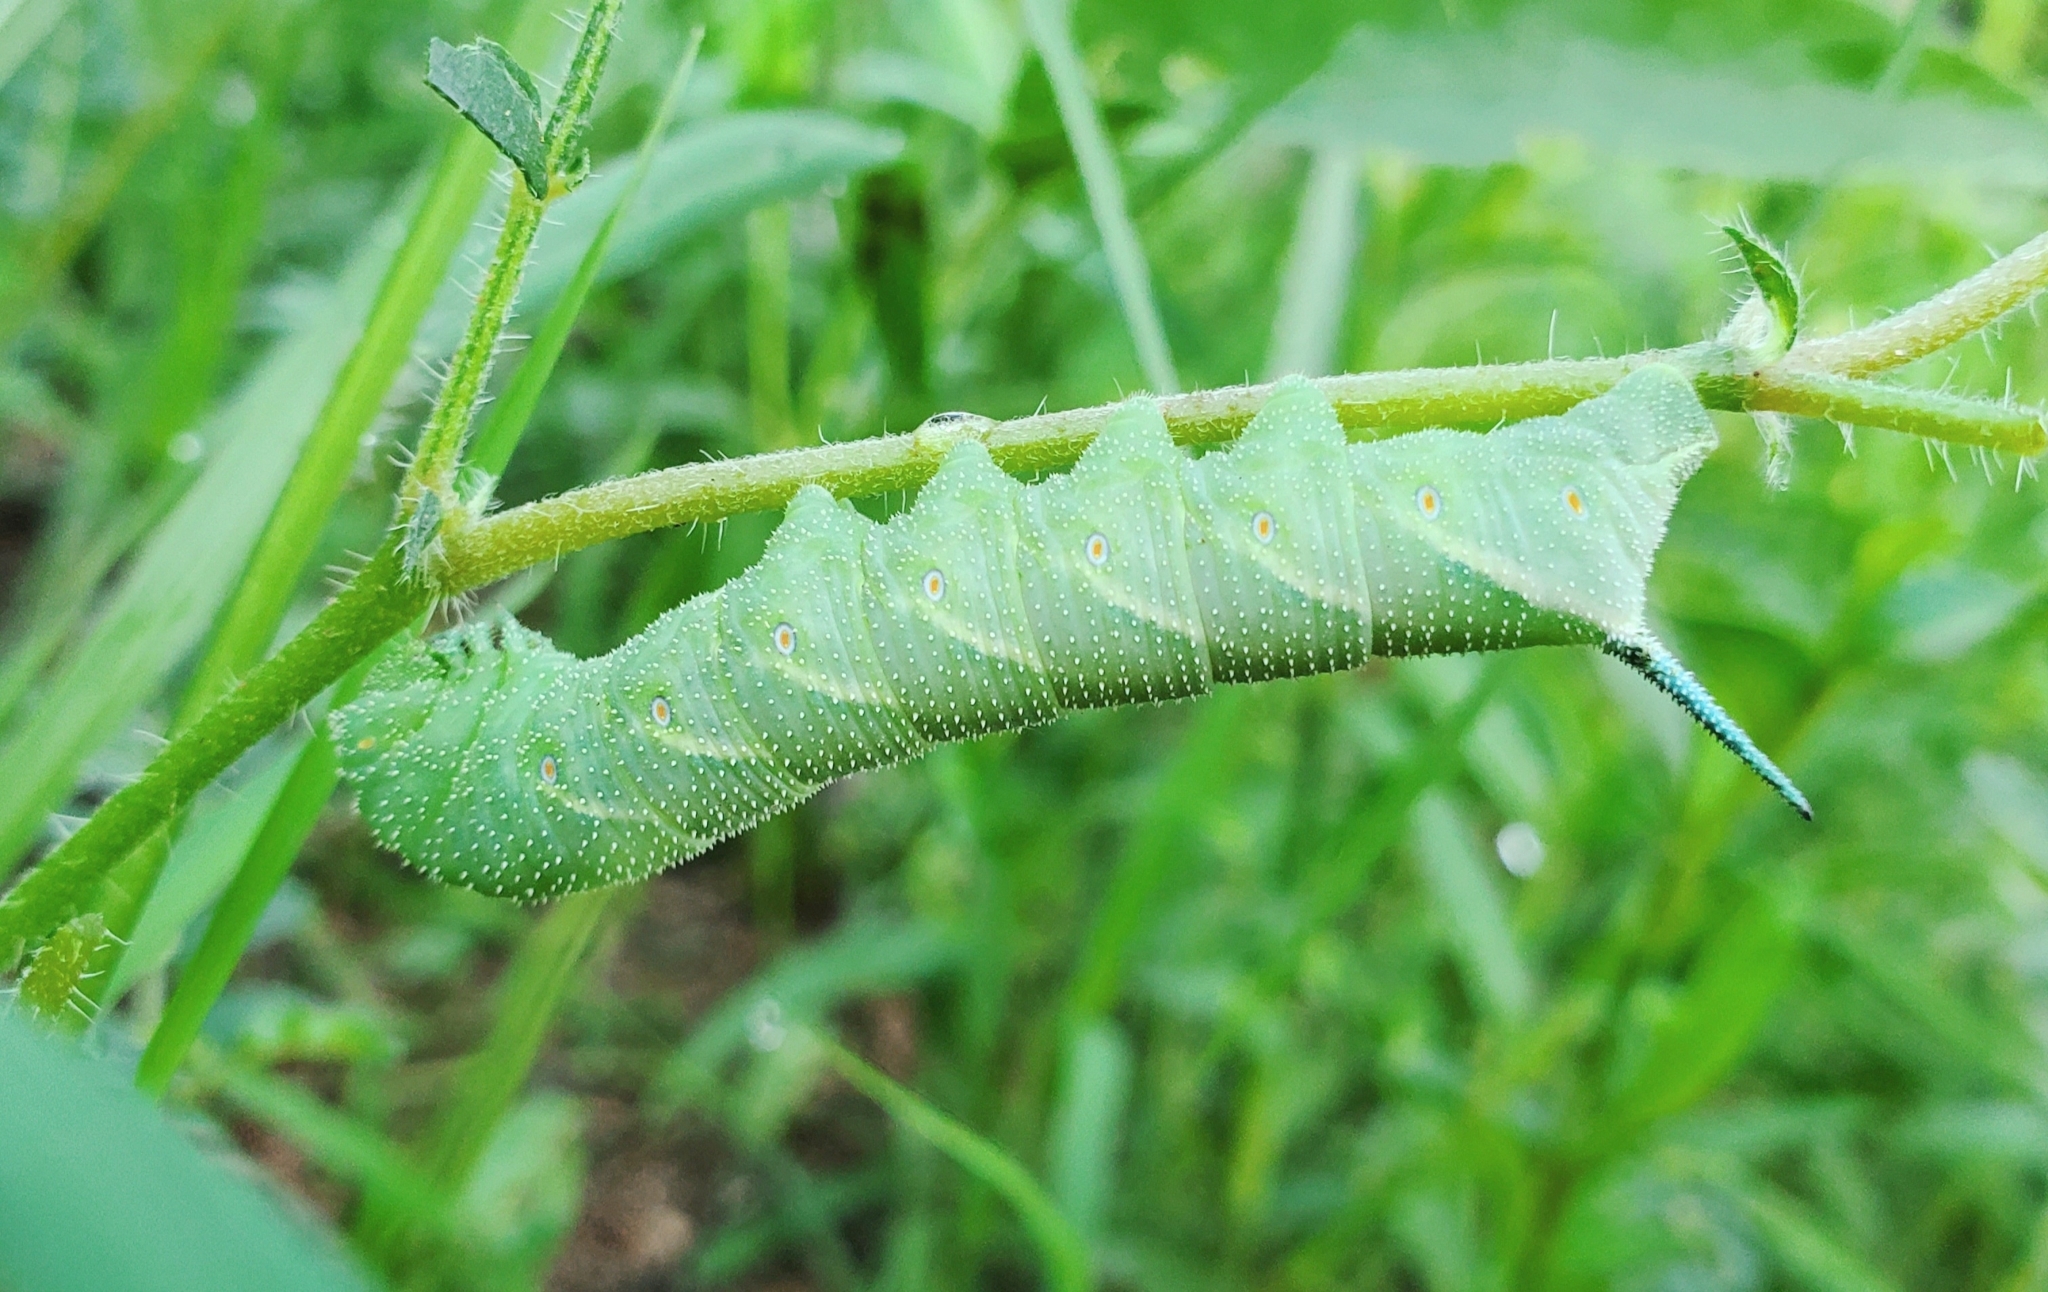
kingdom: Animalia
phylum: Arthropoda
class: Insecta
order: Lepidoptera
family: Sphingidae
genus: Manduca
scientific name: Manduca quinquemaculatus
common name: Five-spotted hawk-moth
